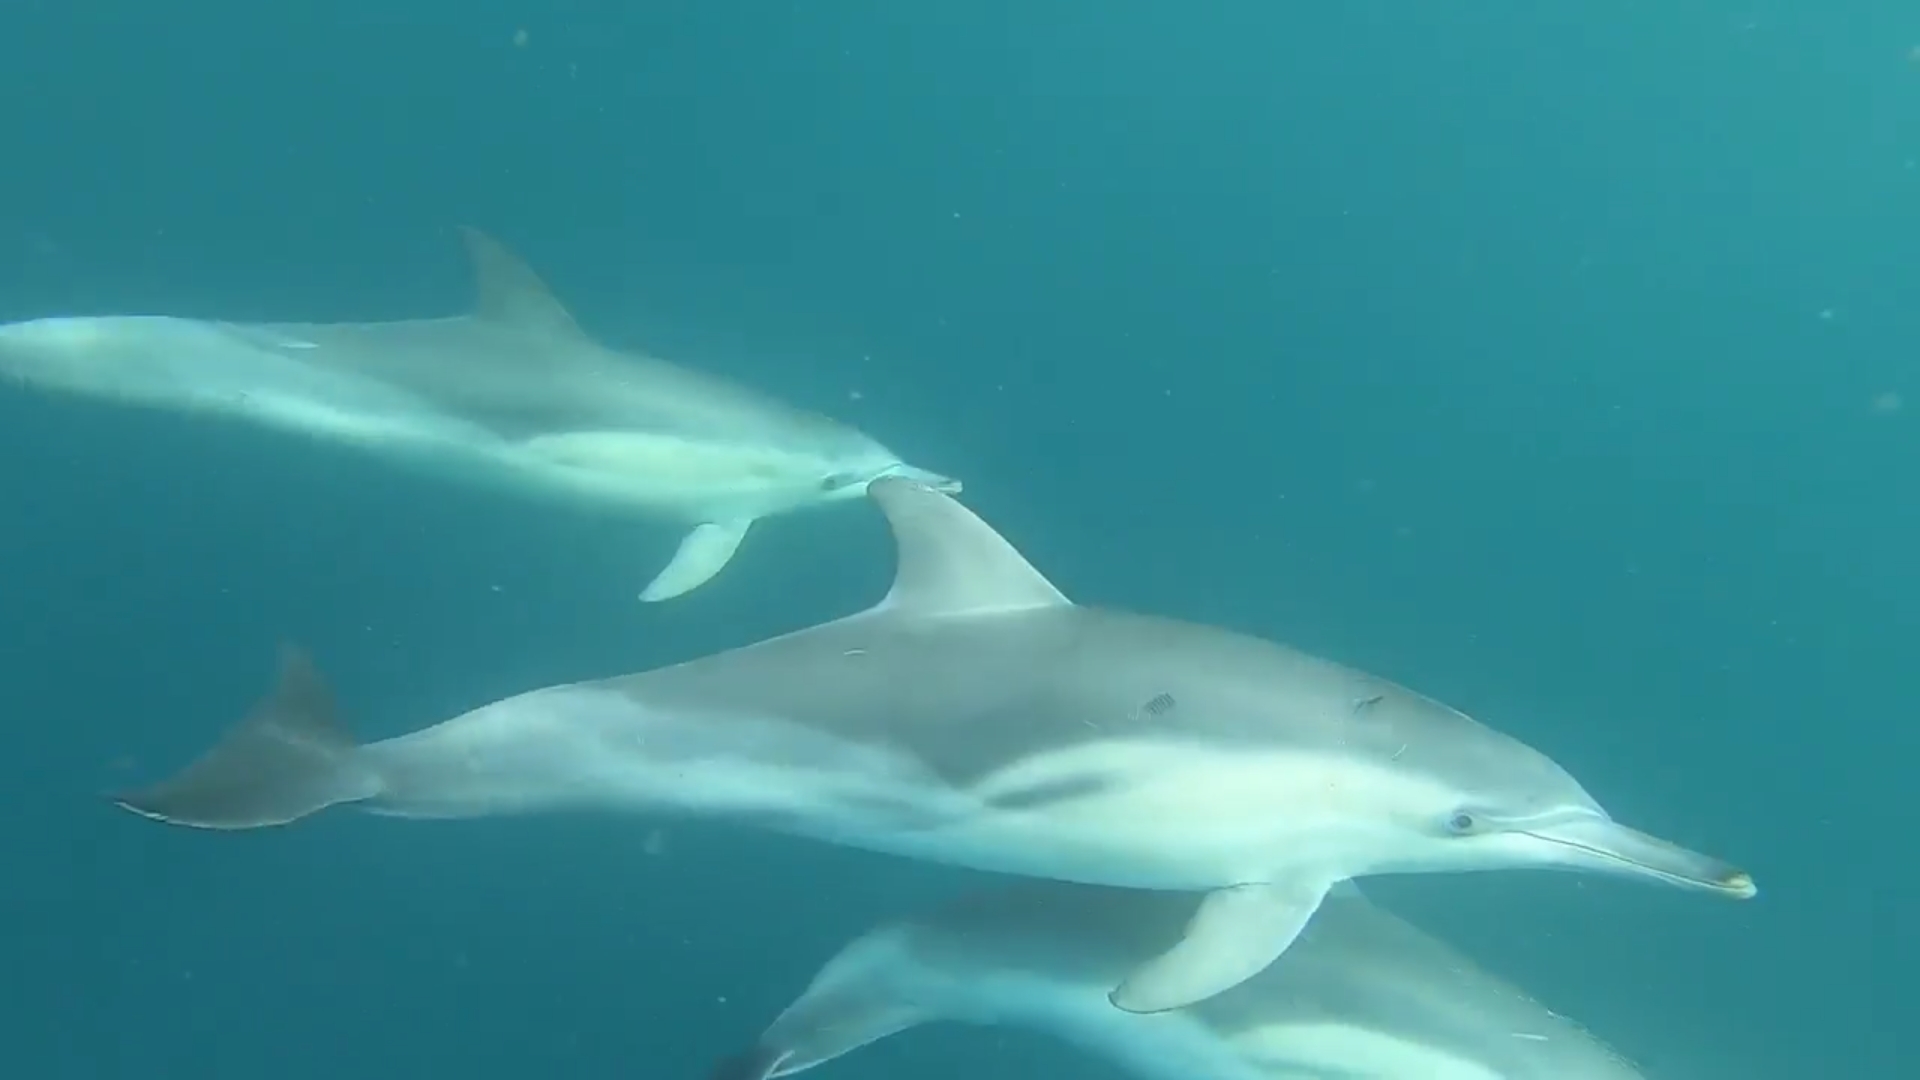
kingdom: Animalia
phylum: Chordata
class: Mammalia
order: Cetacea
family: Delphinidae
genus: Delphinus
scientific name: Delphinus delphis
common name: Common dolphin
